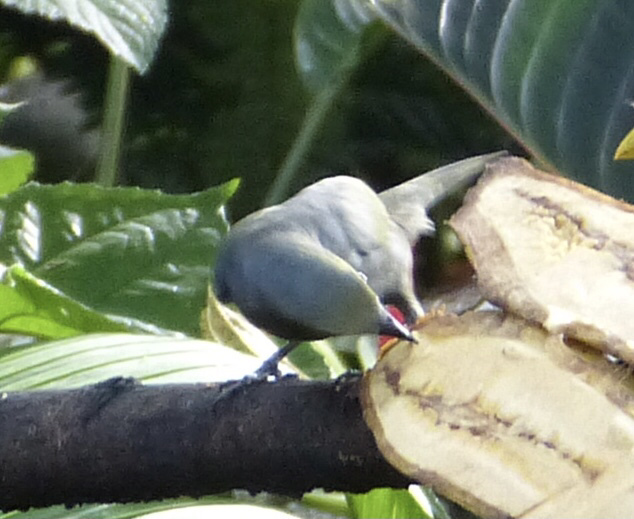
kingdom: Animalia
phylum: Chordata
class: Aves
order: Passeriformes
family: Thraupidae
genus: Thraupis
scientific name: Thraupis palmarum
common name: Palm tanager
